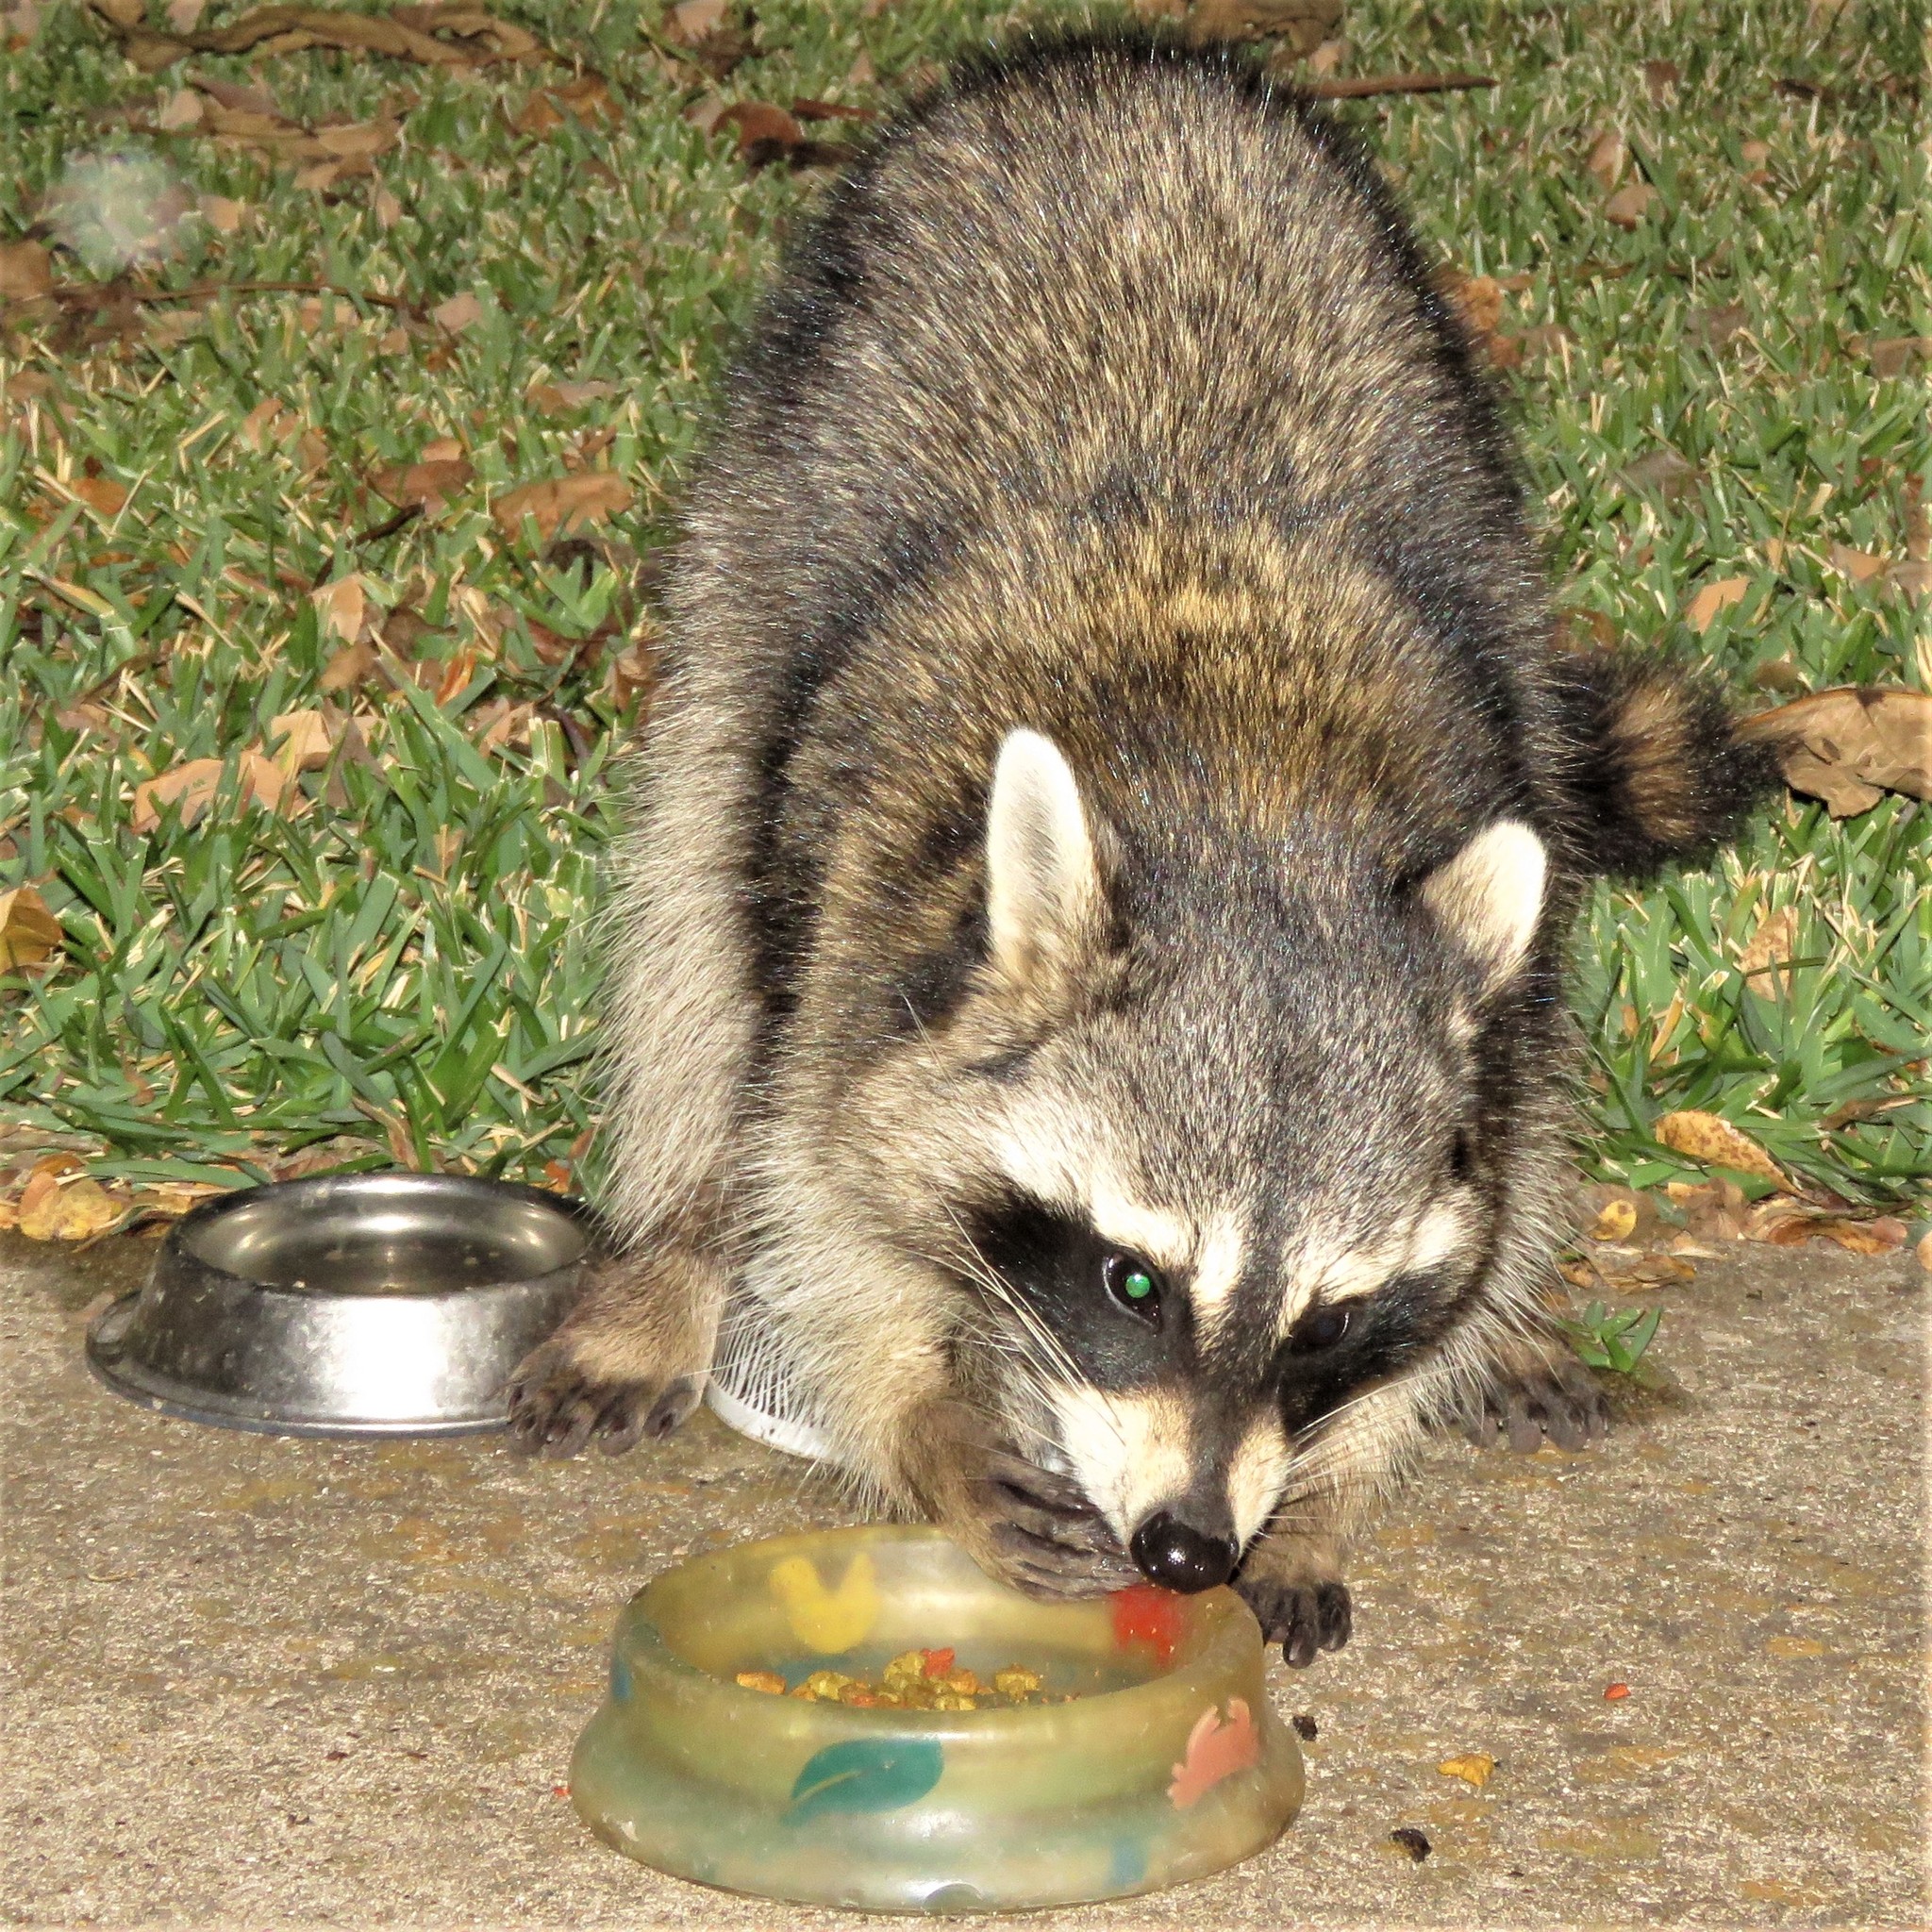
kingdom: Animalia
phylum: Chordata
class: Mammalia
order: Carnivora
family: Procyonidae
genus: Procyon
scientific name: Procyon lotor
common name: Raccoon
